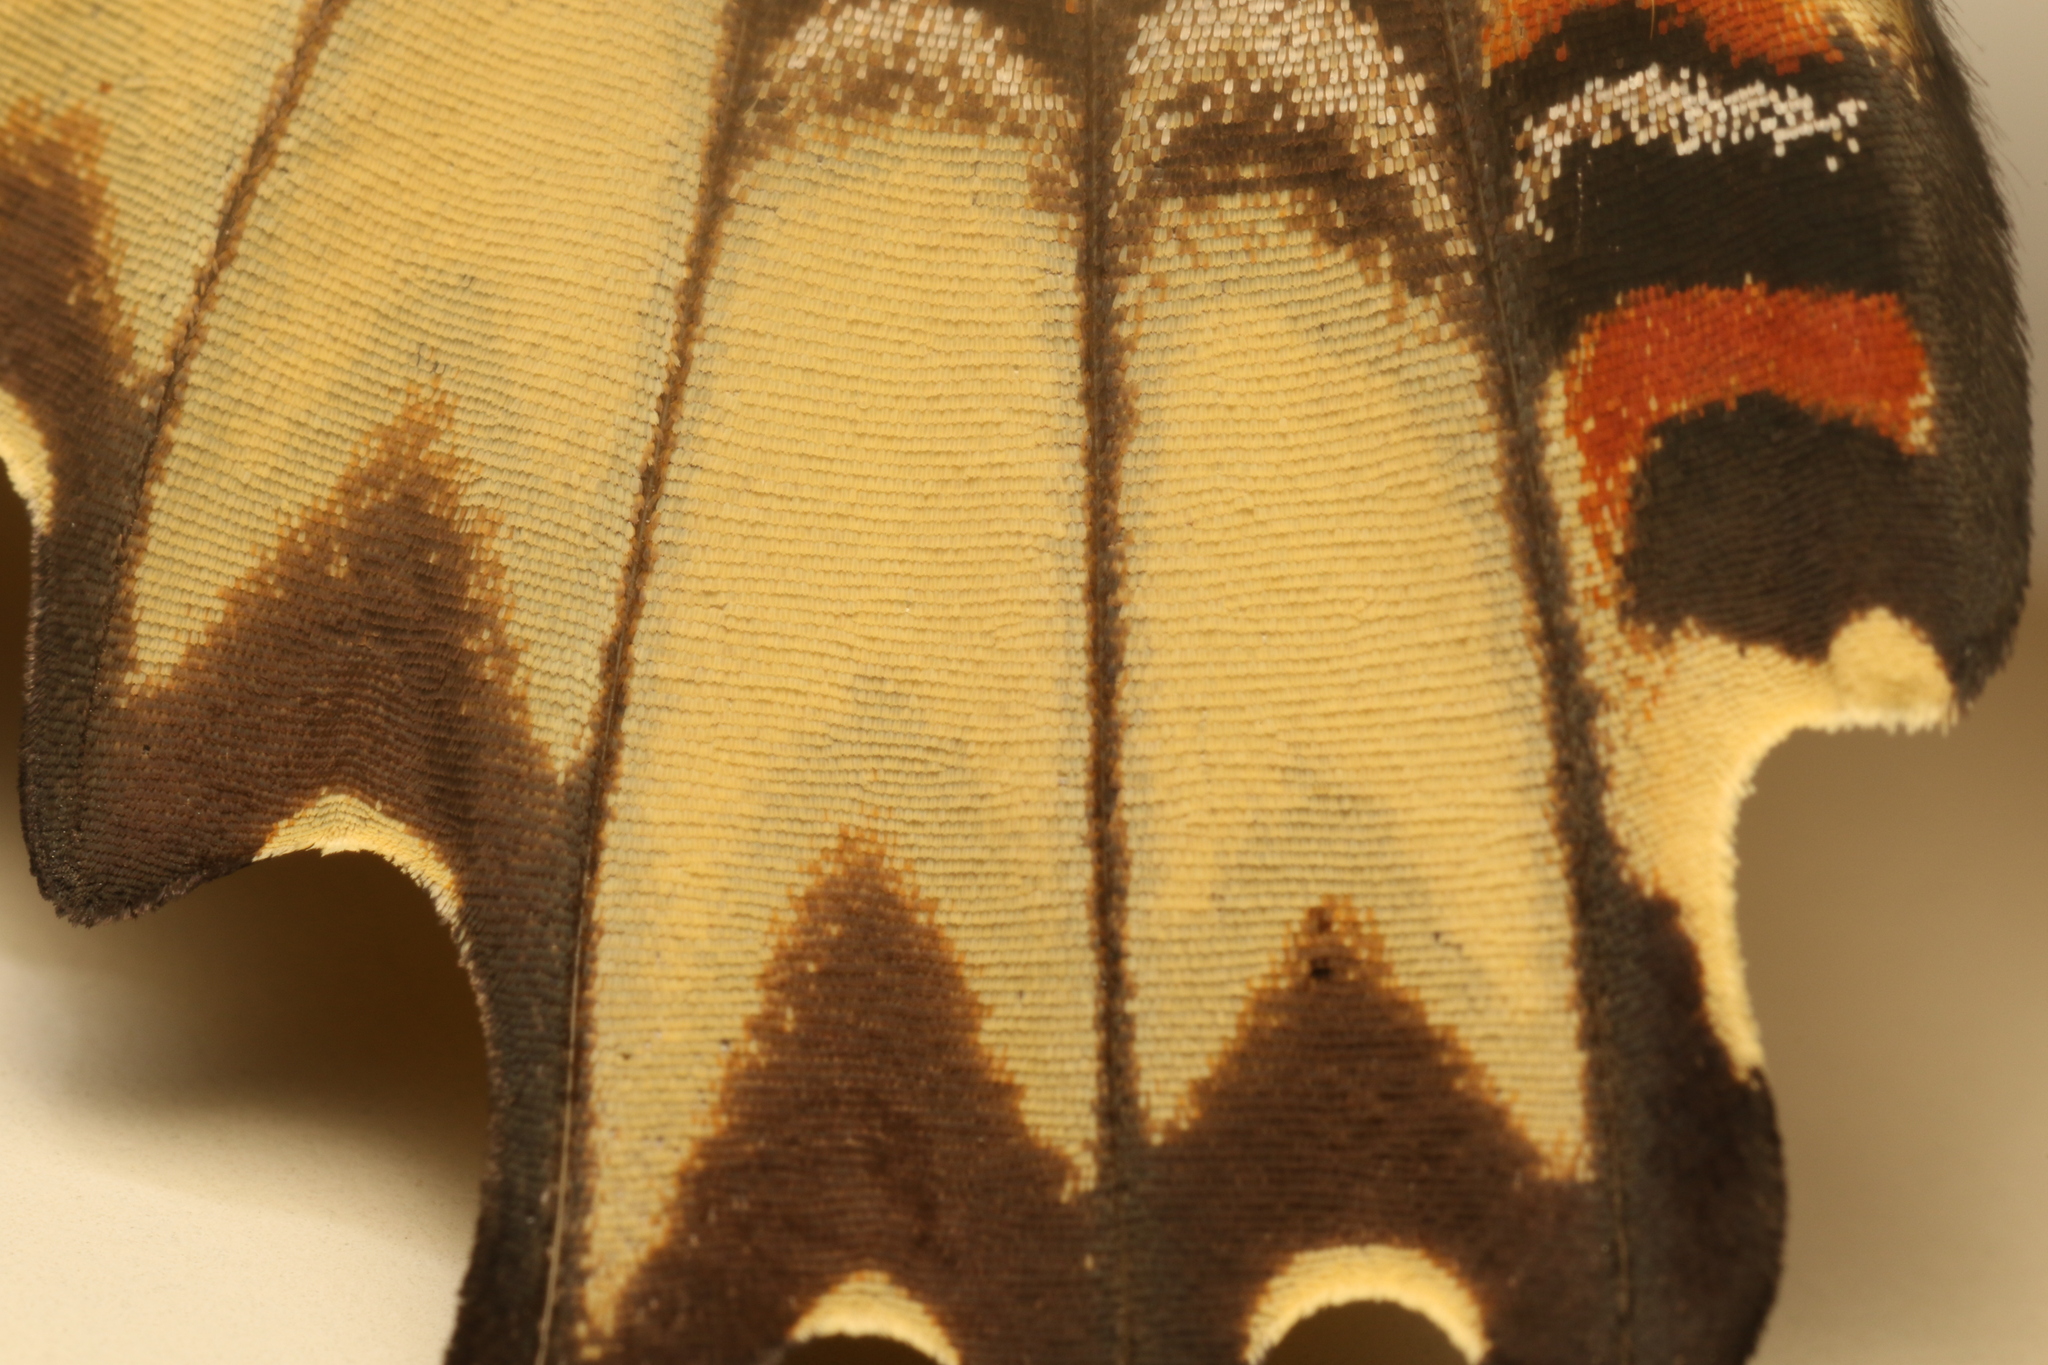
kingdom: Animalia
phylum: Arthropoda
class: Insecta
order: Lepidoptera
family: Papilionidae
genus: Papilio
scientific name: Papilio astyalus
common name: Astyalus swallowtail
